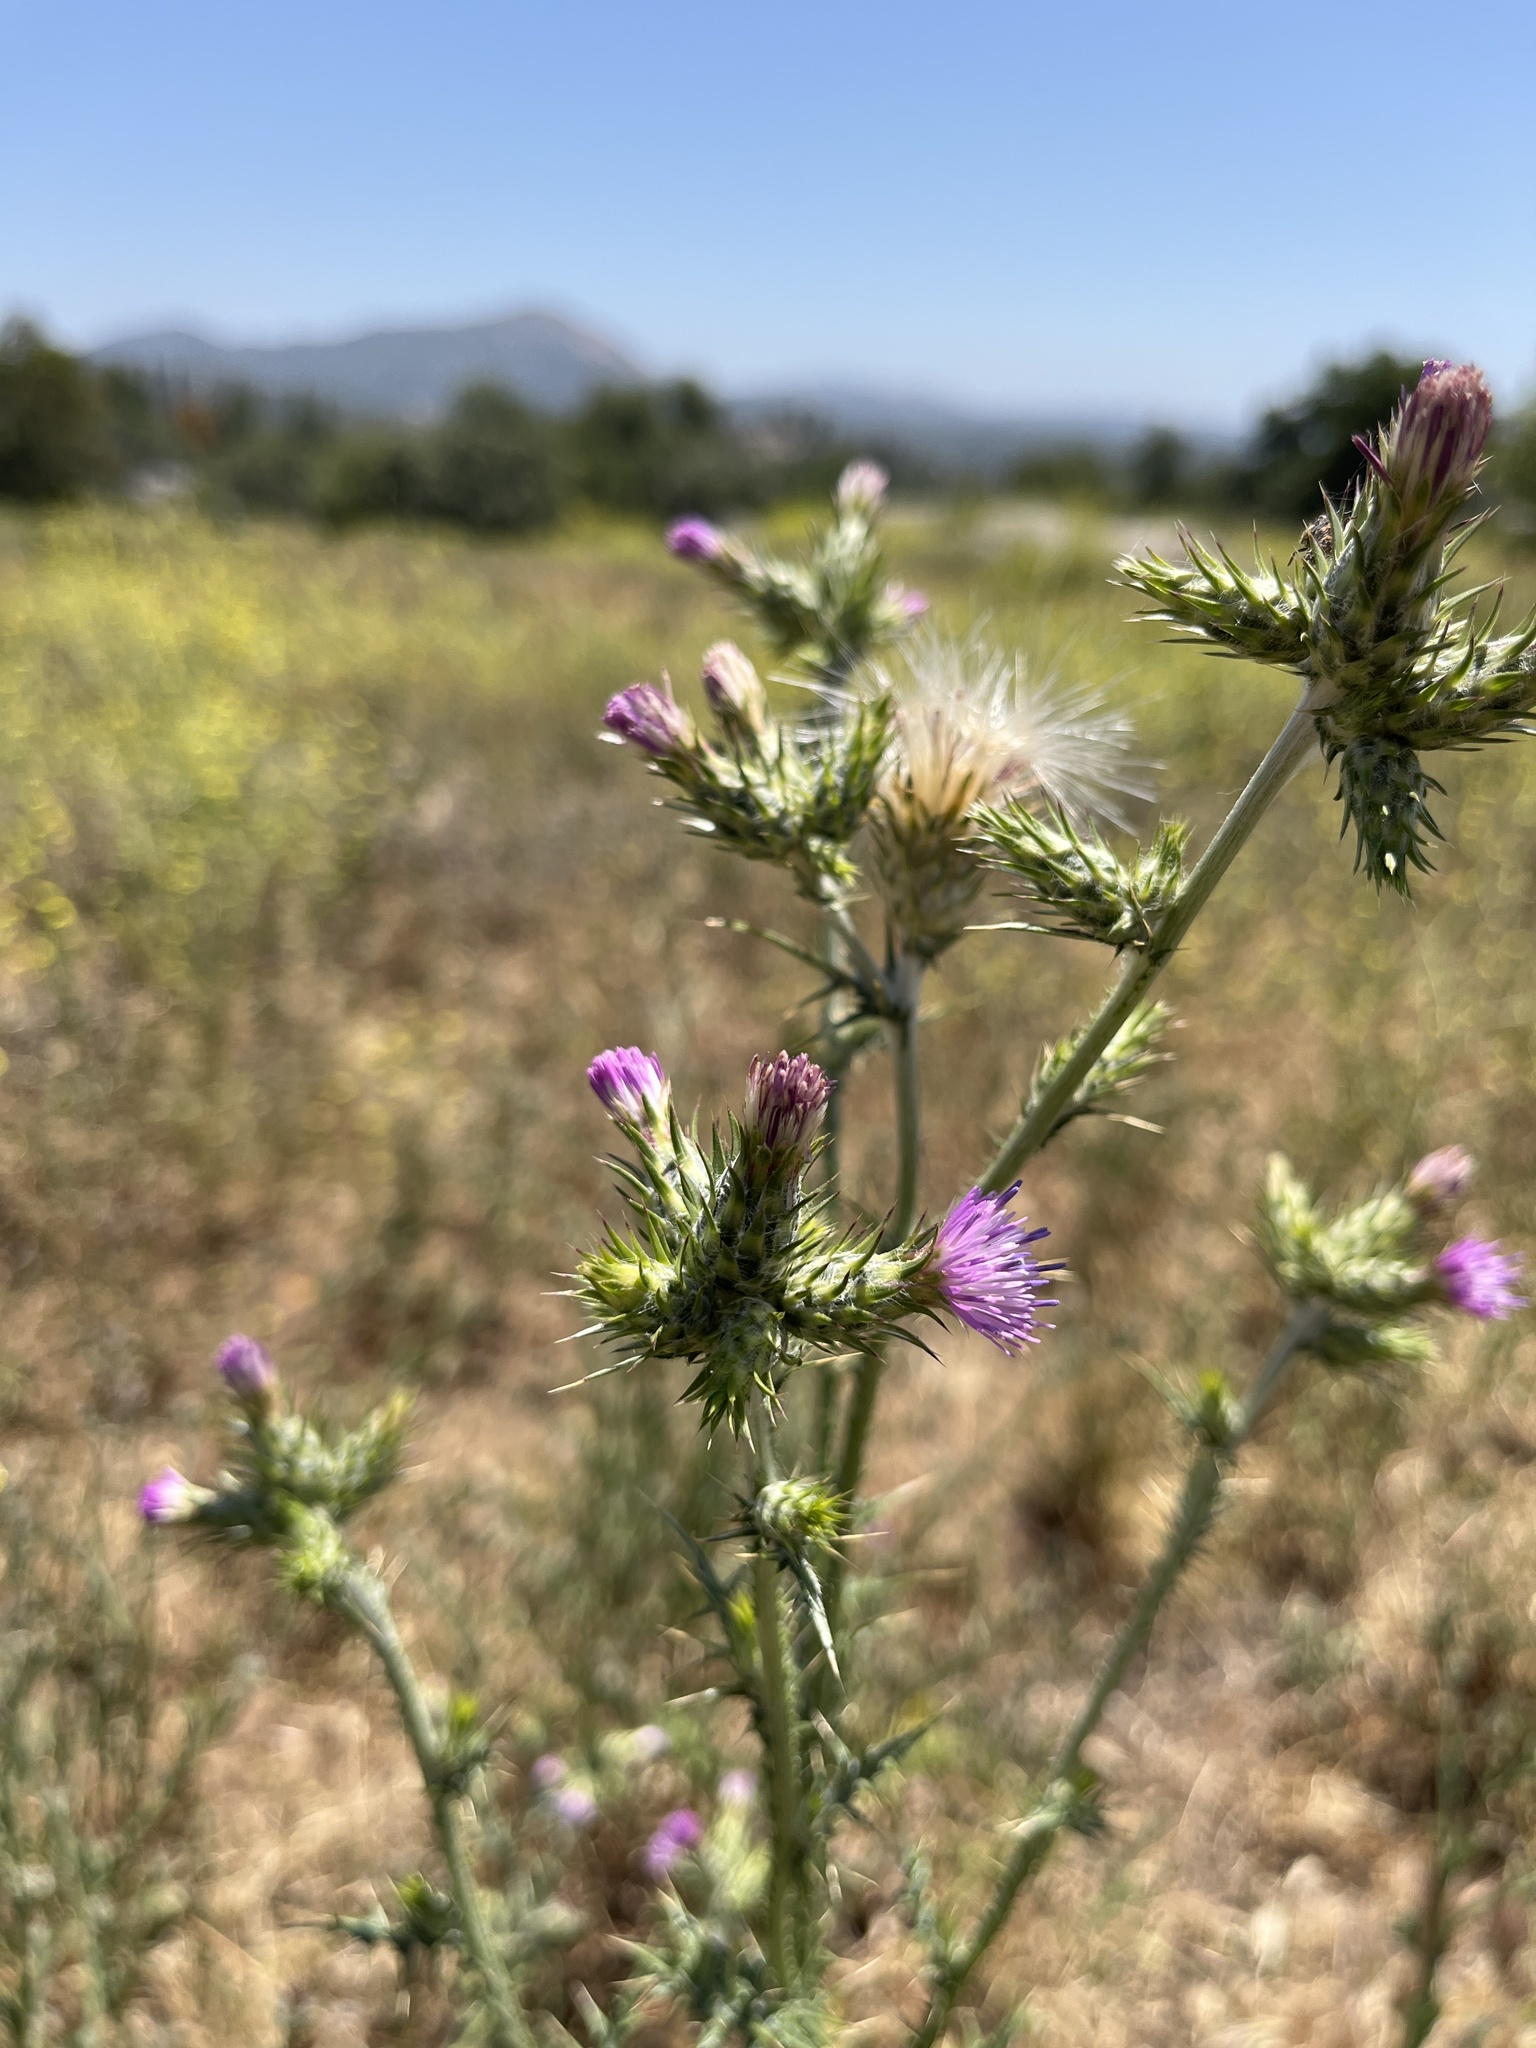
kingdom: Plantae
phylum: Tracheophyta
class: Magnoliopsida
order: Asterales
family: Asteraceae
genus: Carduus
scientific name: Carduus pycnocephalus
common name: Plymouth thistle
